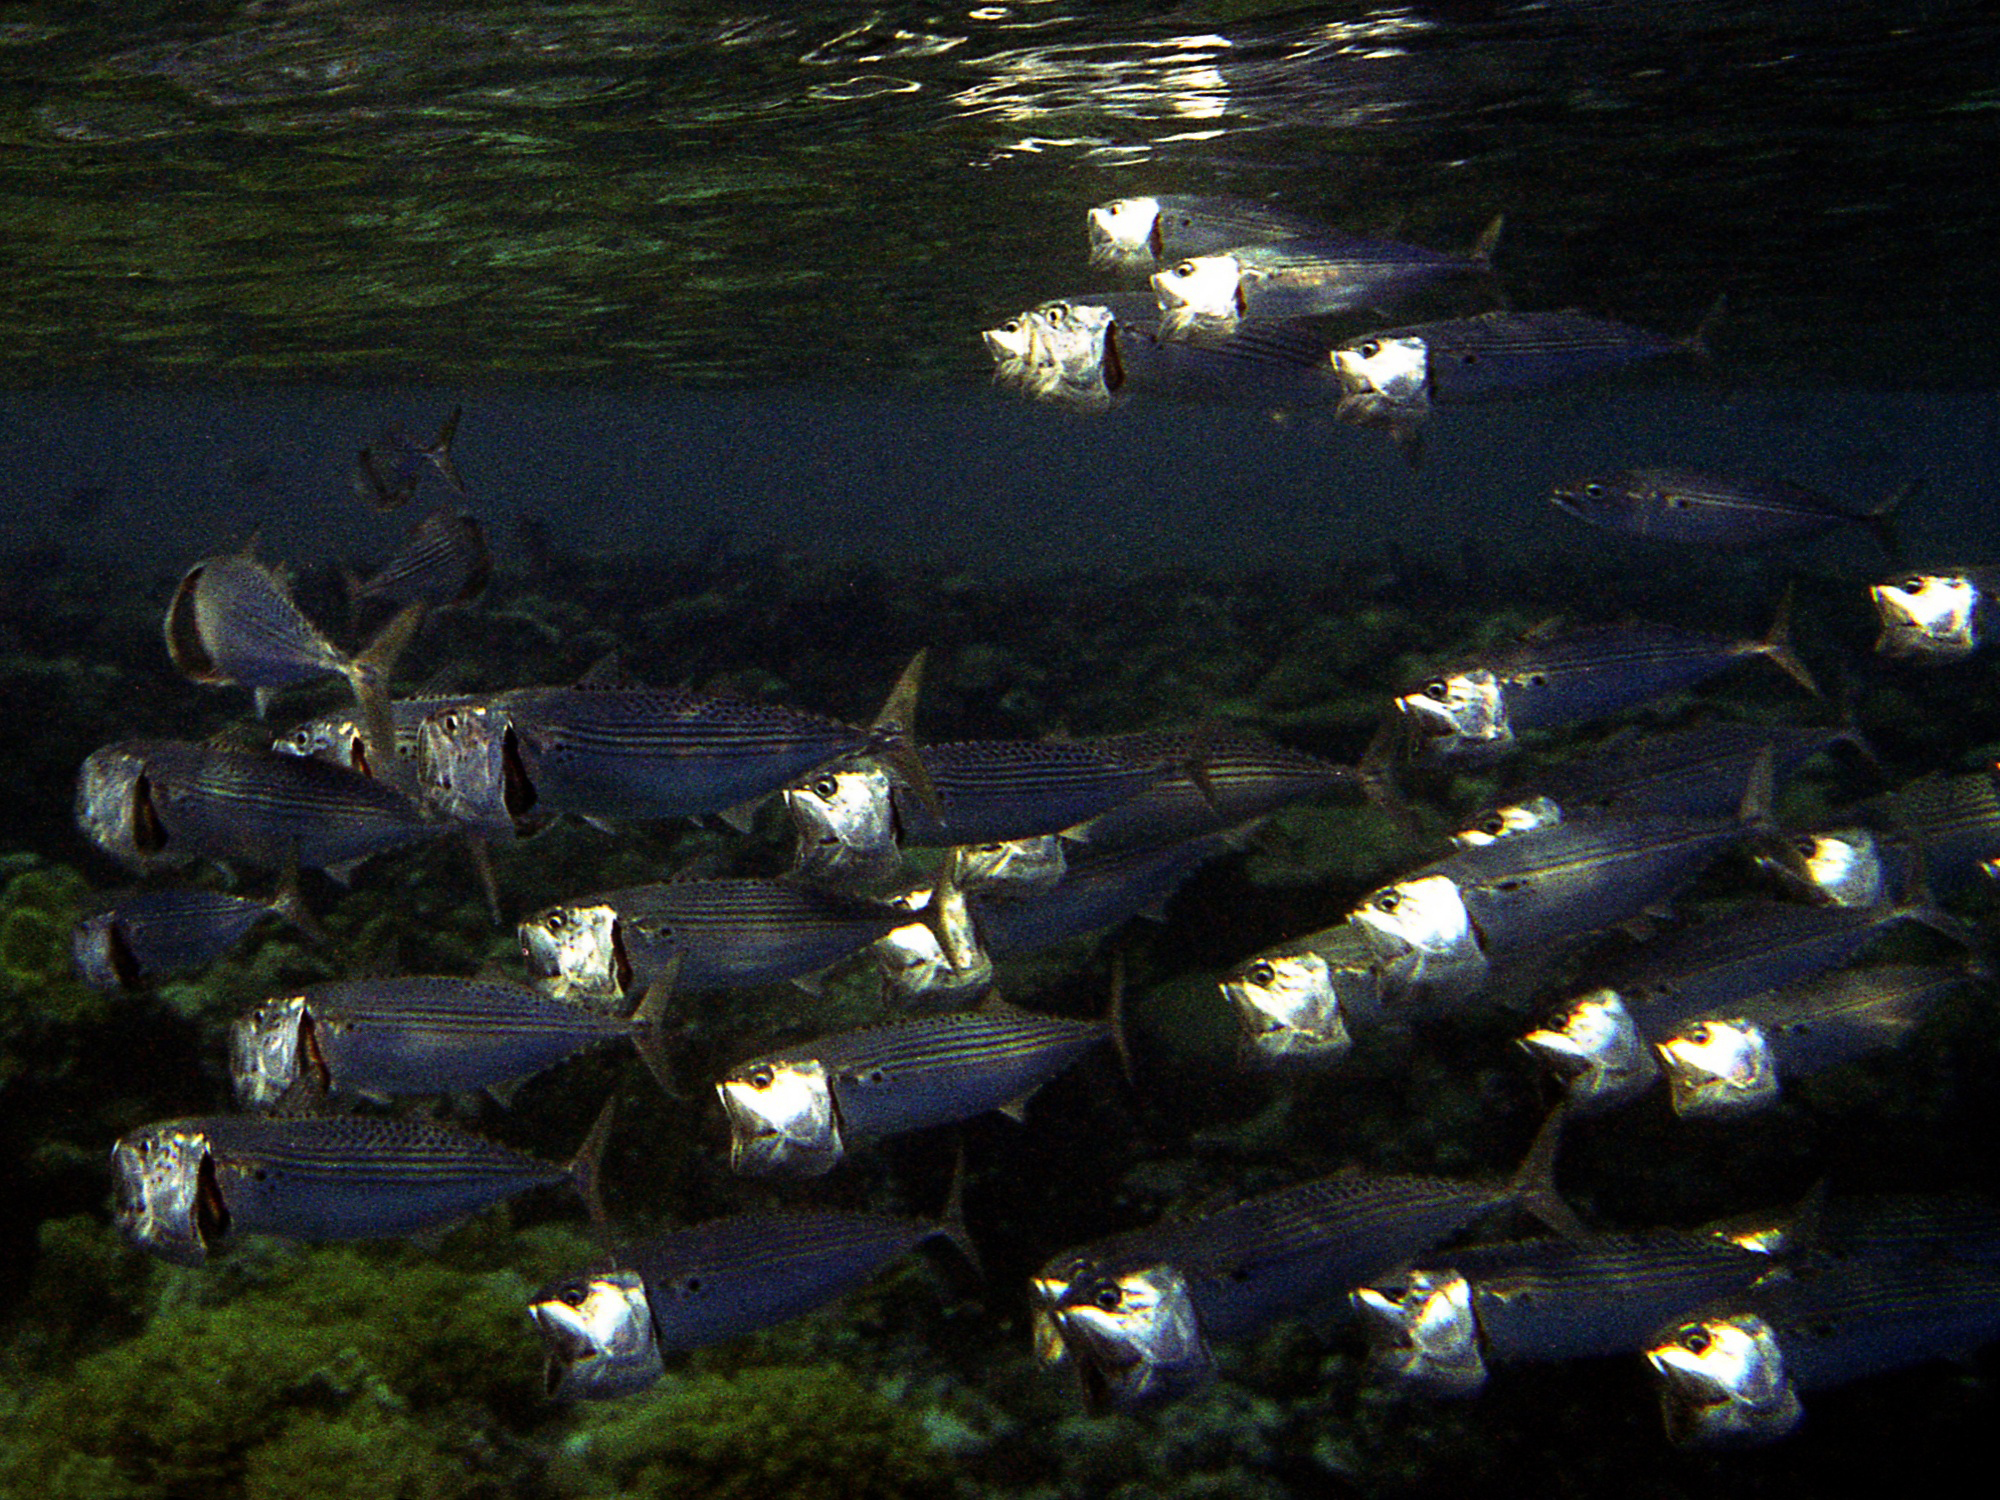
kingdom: Animalia
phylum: Chordata
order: Perciformes
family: Scombridae
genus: Rastrelliger
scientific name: Rastrelliger kanagurta
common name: Indian mackerel
